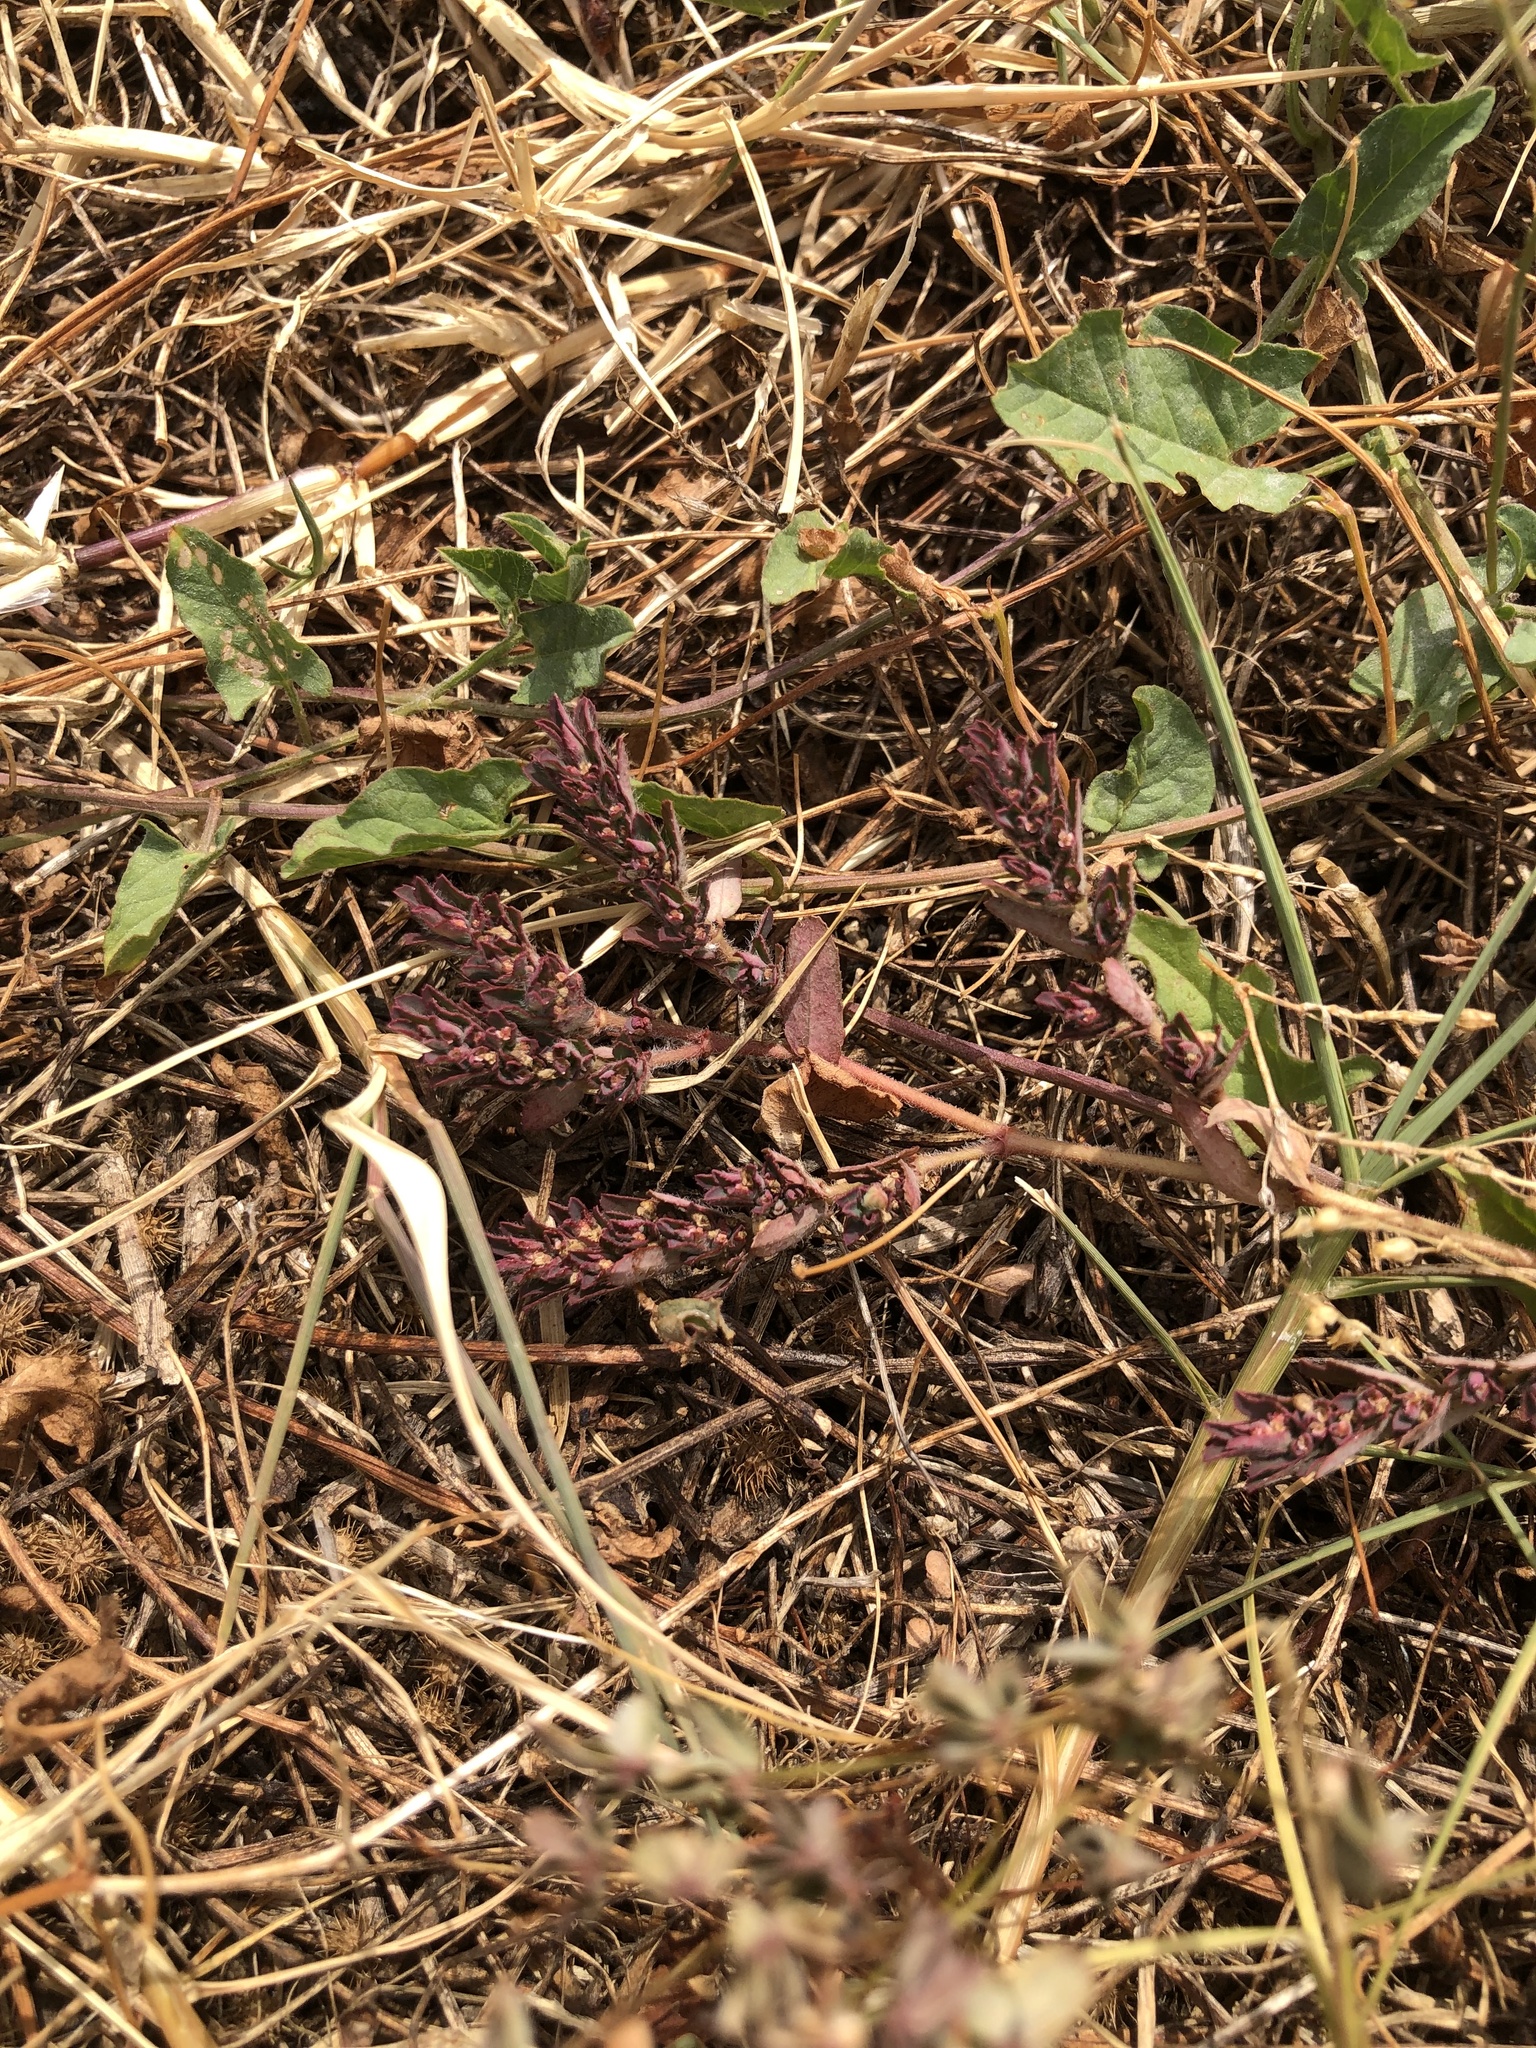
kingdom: Plantae
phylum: Tracheophyta
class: Magnoliopsida
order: Malpighiales
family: Euphorbiaceae
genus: Euphorbia
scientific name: Euphorbia maculata
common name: Spotted spurge
